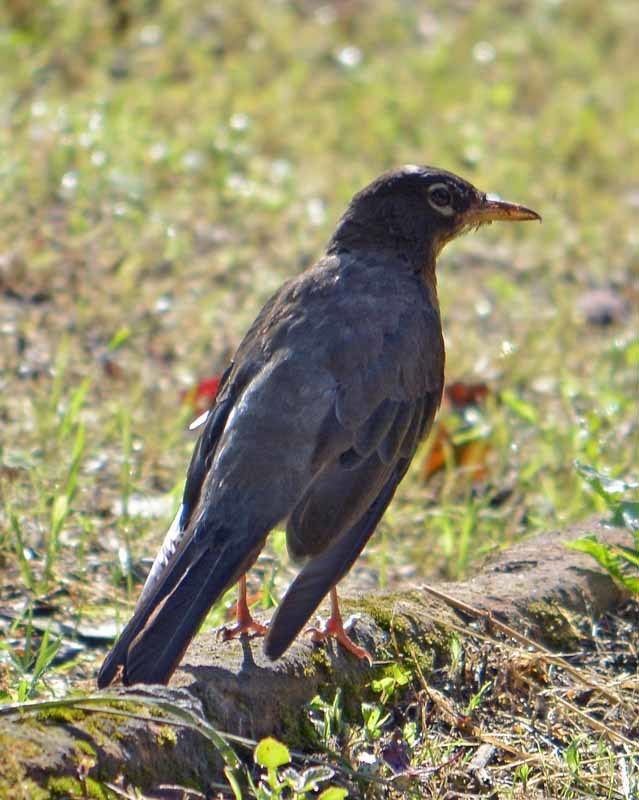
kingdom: Animalia
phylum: Chordata
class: Aves
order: Passeriformes
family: Turdidae
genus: Turdus
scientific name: Turdus migratorius
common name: American robin
